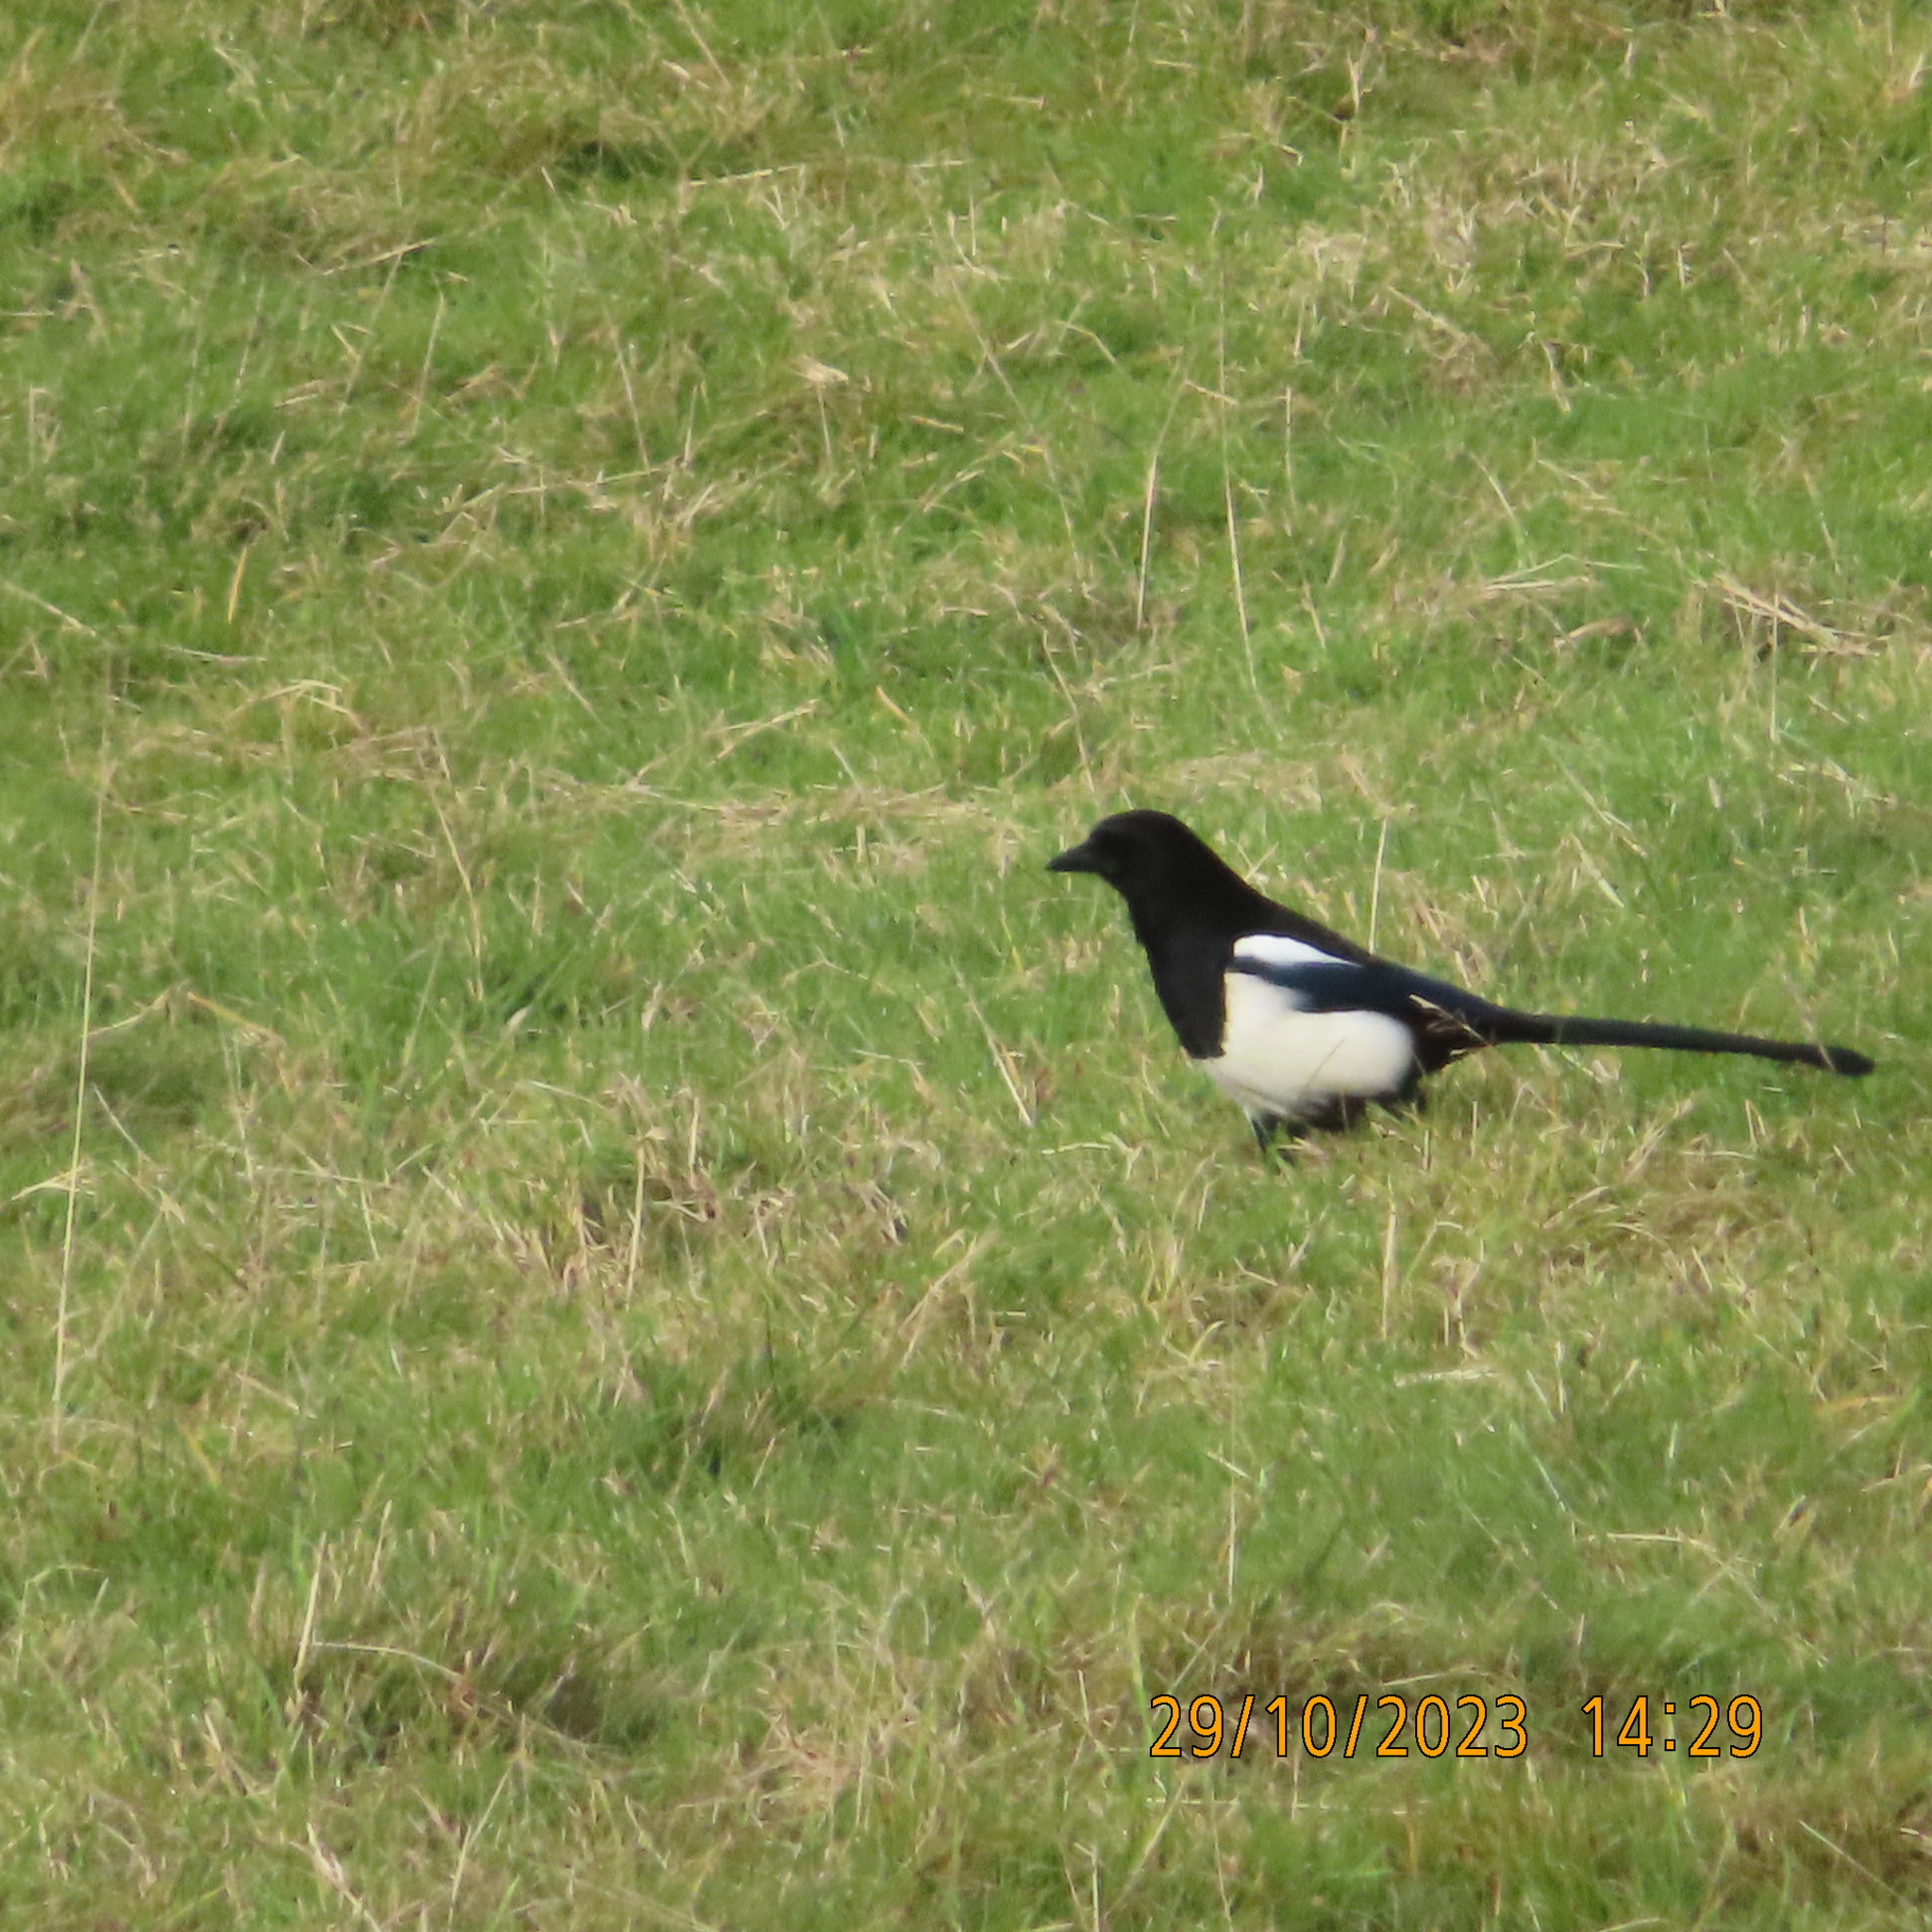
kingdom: Animalia
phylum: Chordata
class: Aves
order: Passeriformes
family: Corvidae
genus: Pica
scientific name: Pica pica
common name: Eurasian magpie
